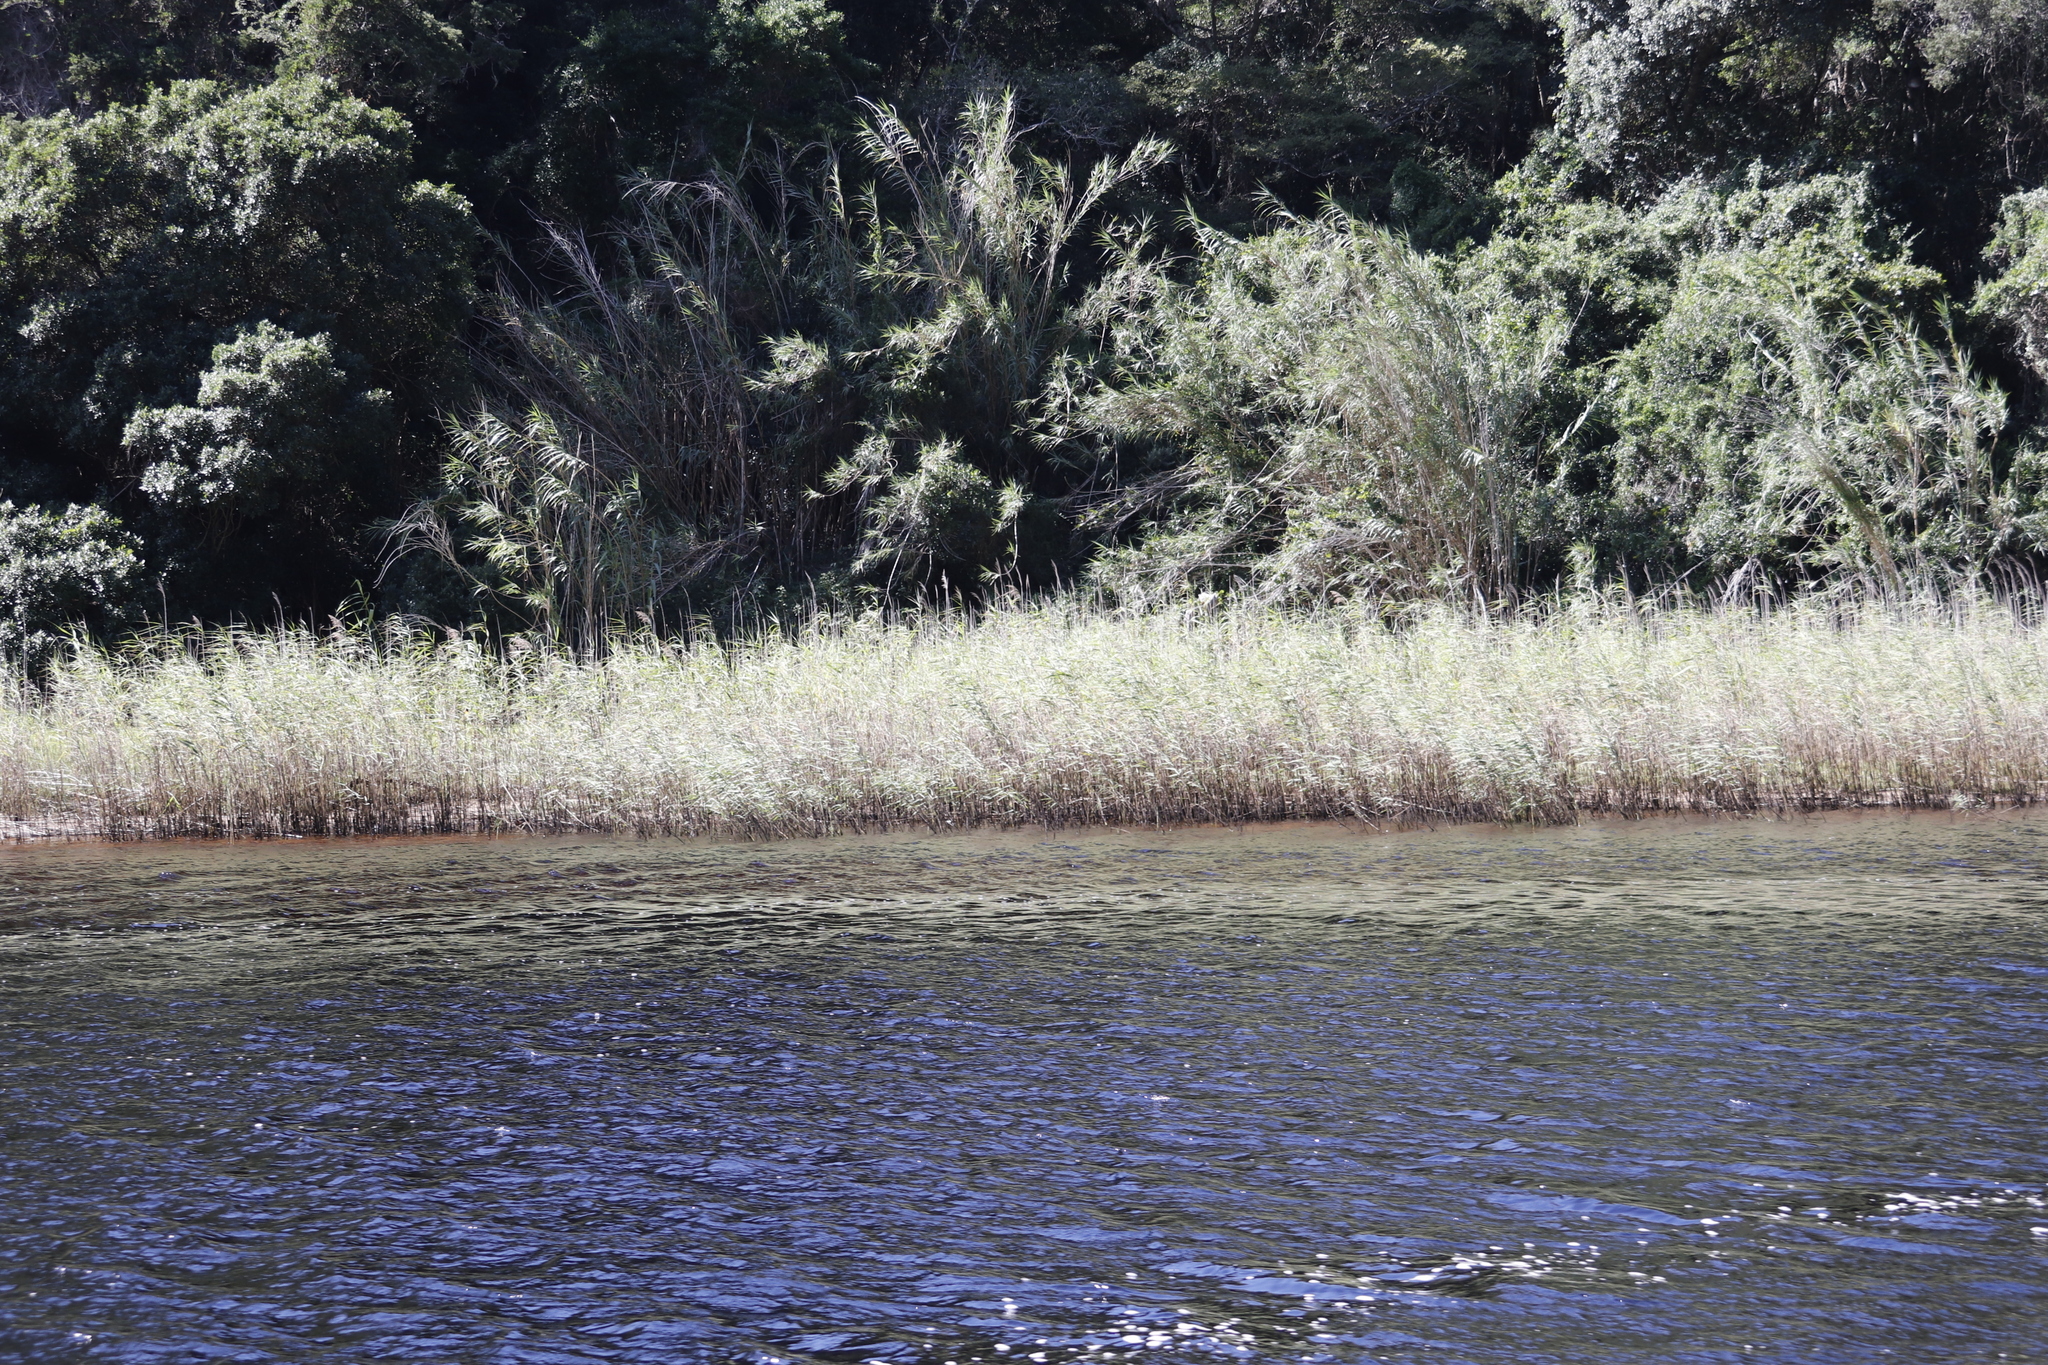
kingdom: Plantae
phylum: Tracheophyta
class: Liliopsida
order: Poales
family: Poaceae
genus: Phragmites
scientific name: Phragmites australis
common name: Common reed
